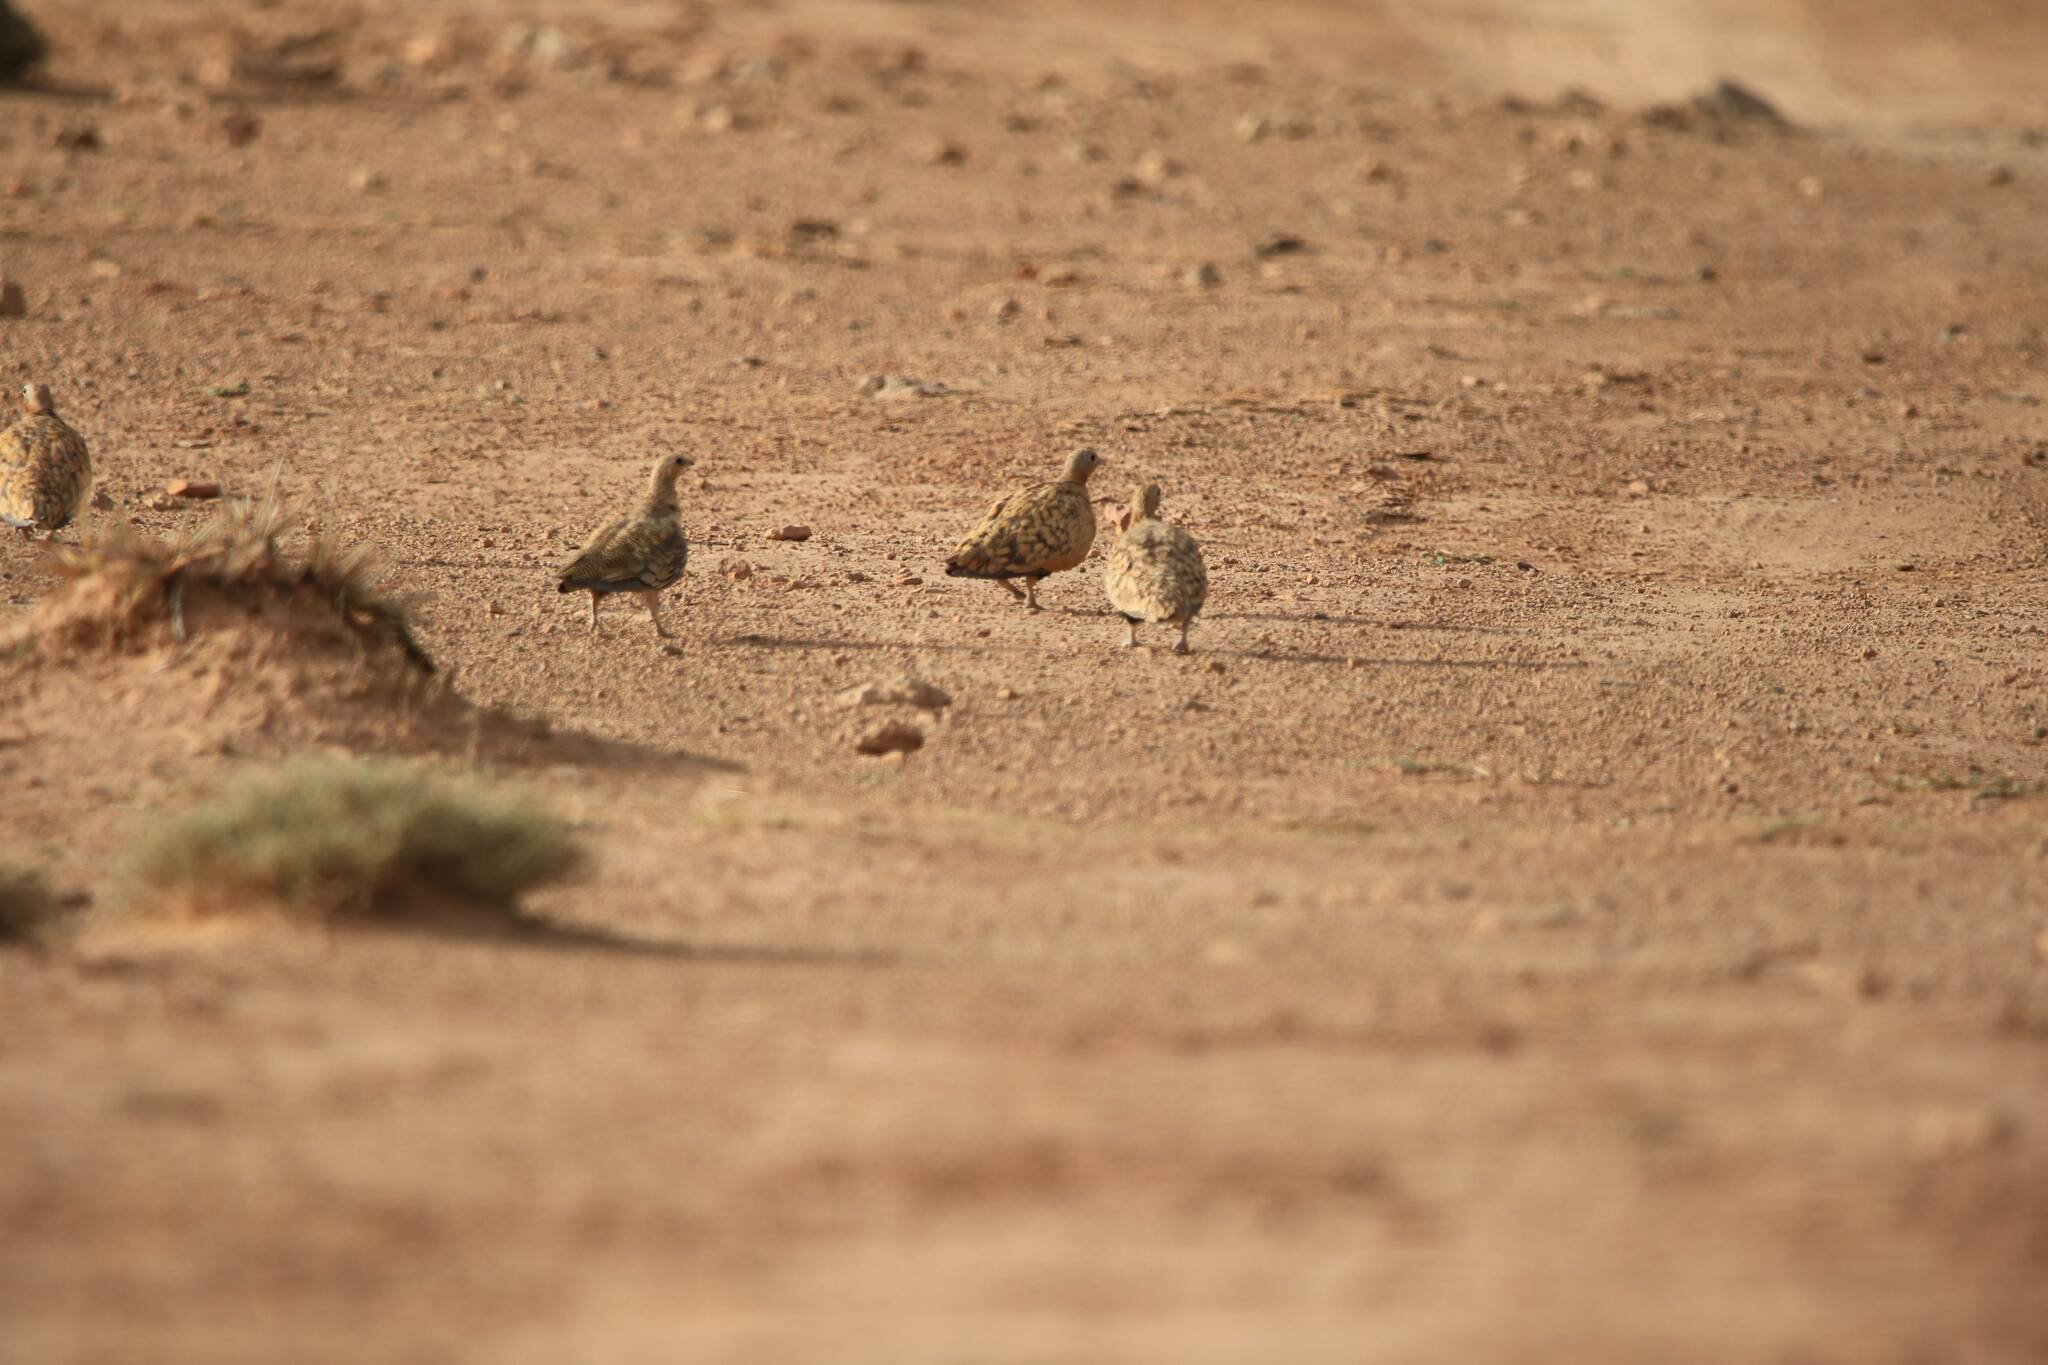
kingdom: Animalia
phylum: Chordata
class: Aves
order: Pteroclidiformes
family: Pteroclididae
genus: Pterocles
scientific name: Pterocles orientalis
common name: Black-bellied sandgrouse
